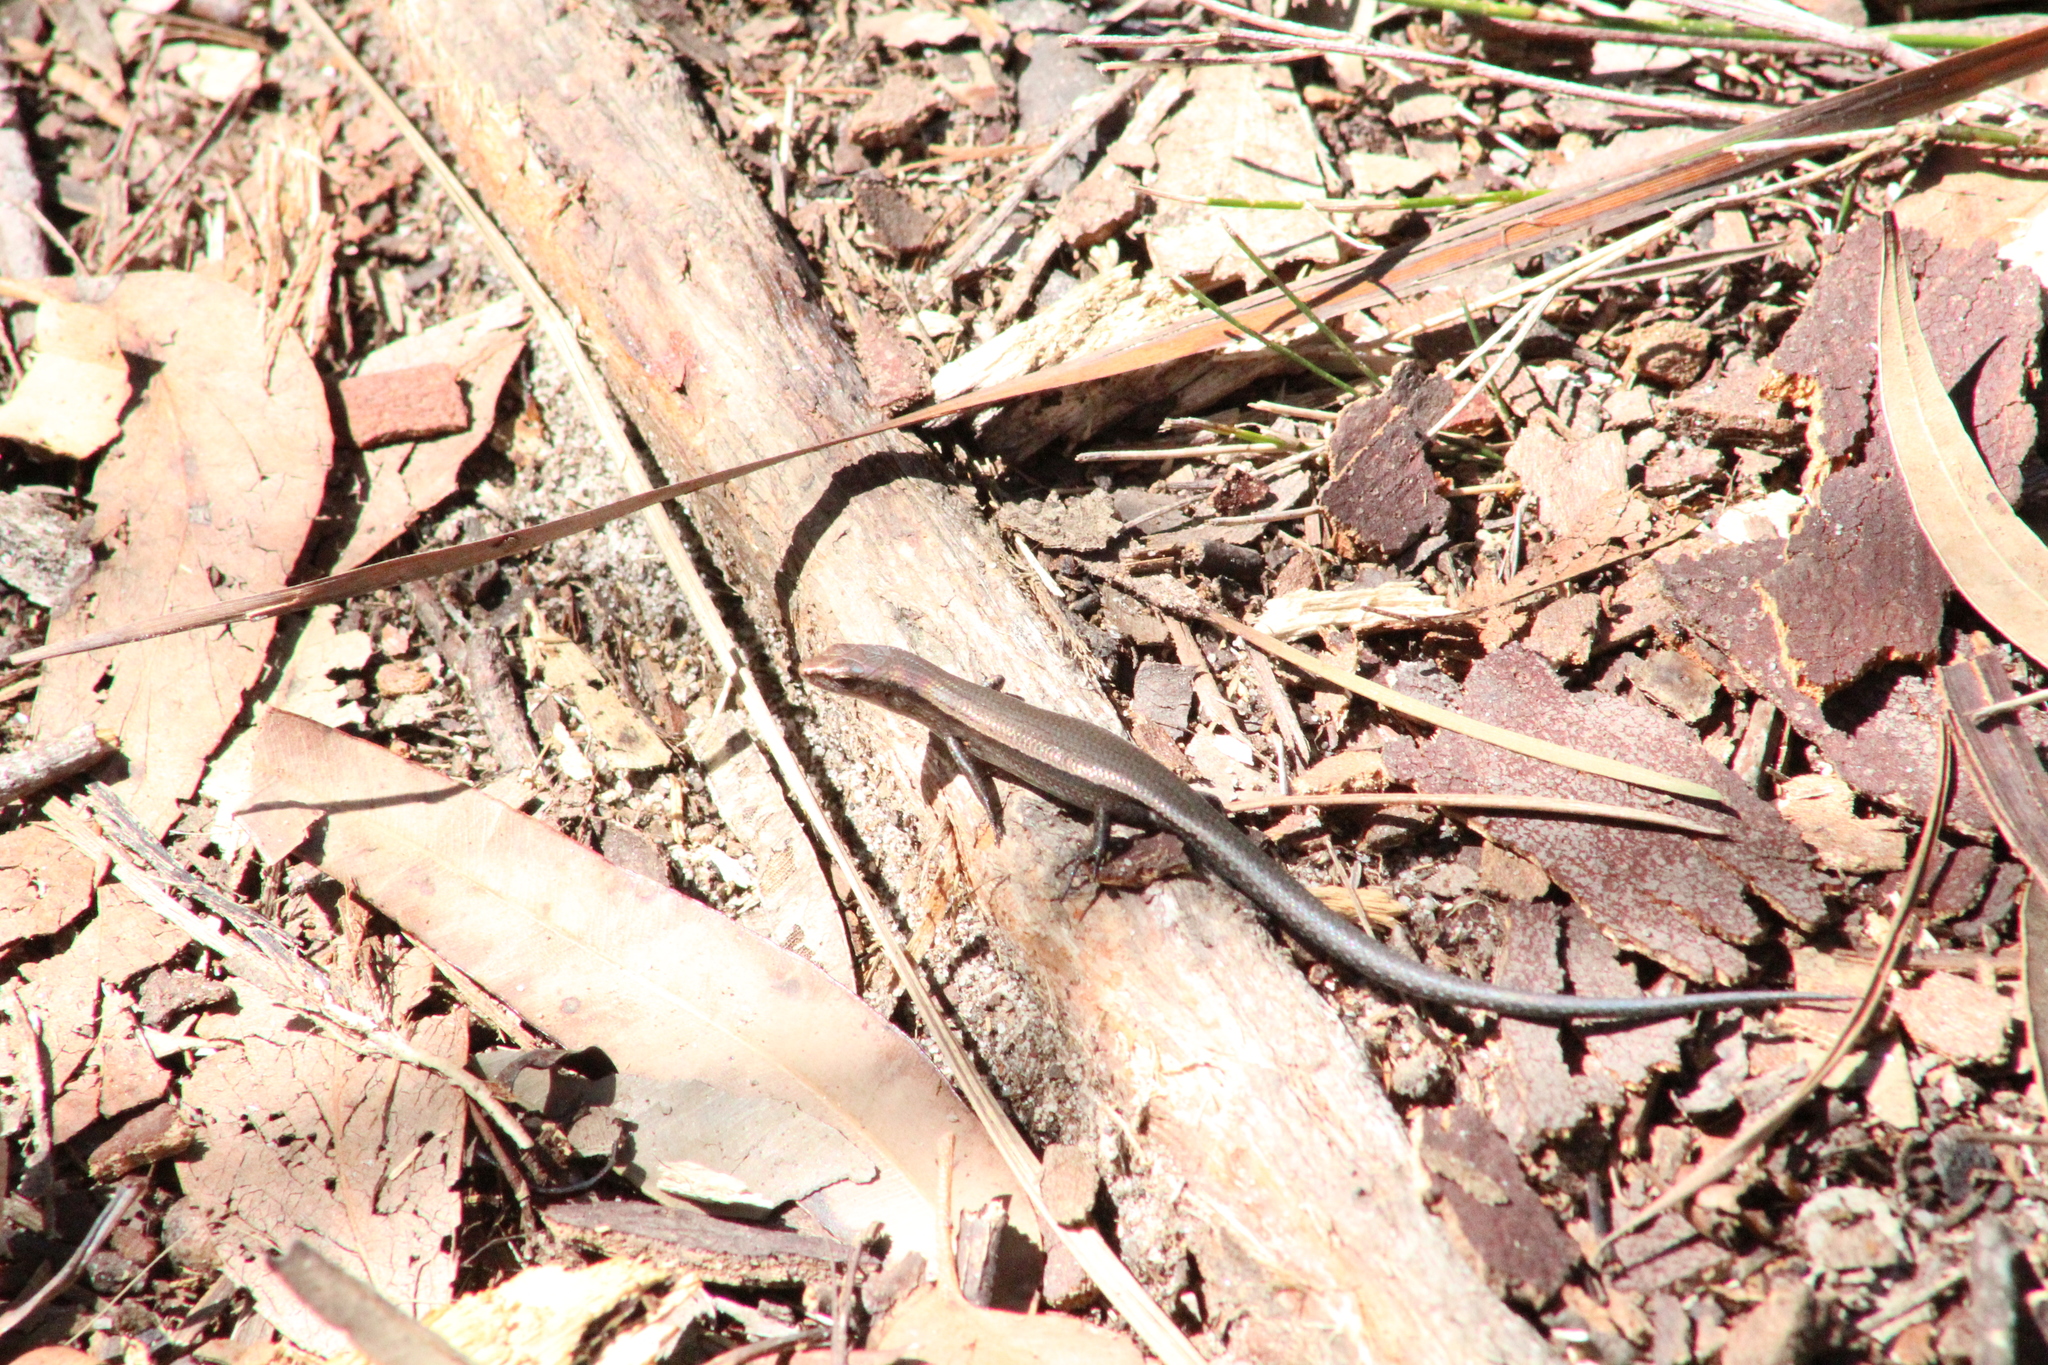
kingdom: Animalia
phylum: Chordata
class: Squamata
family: Scincidae
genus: Lampropholis
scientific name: Lampropholis delicata
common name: Plague skink
